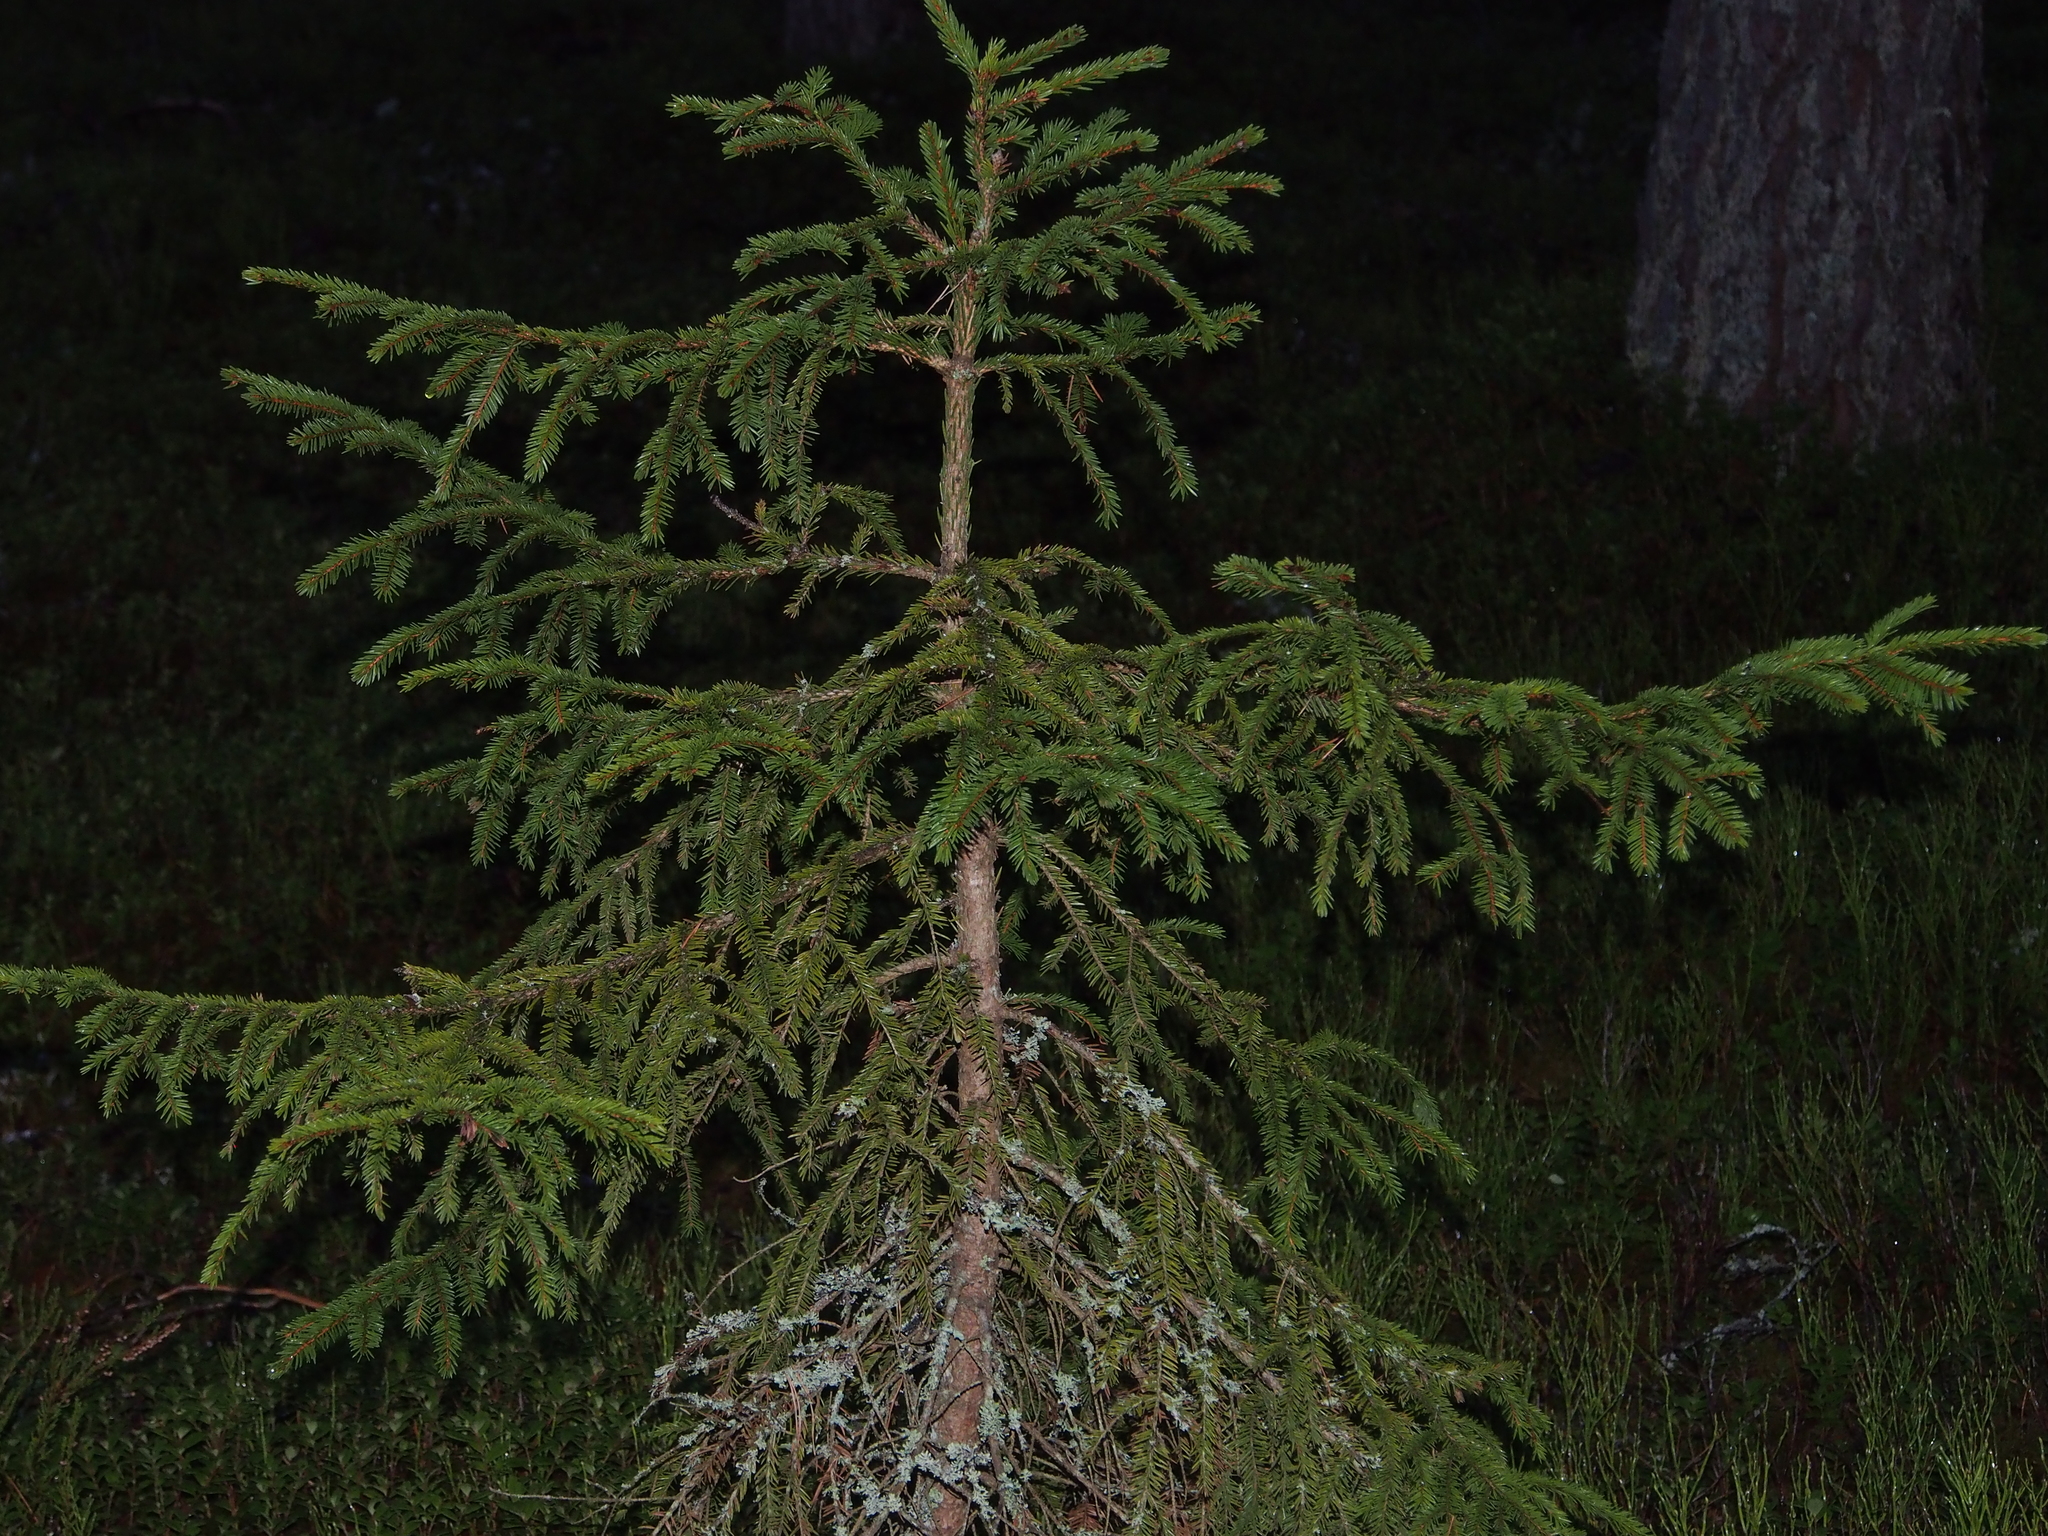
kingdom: Plantae
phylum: Tracheophyta
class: Pinopsida
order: Pinales
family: Pinaceae
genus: Picea
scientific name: Picea abies
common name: Norway spruce
